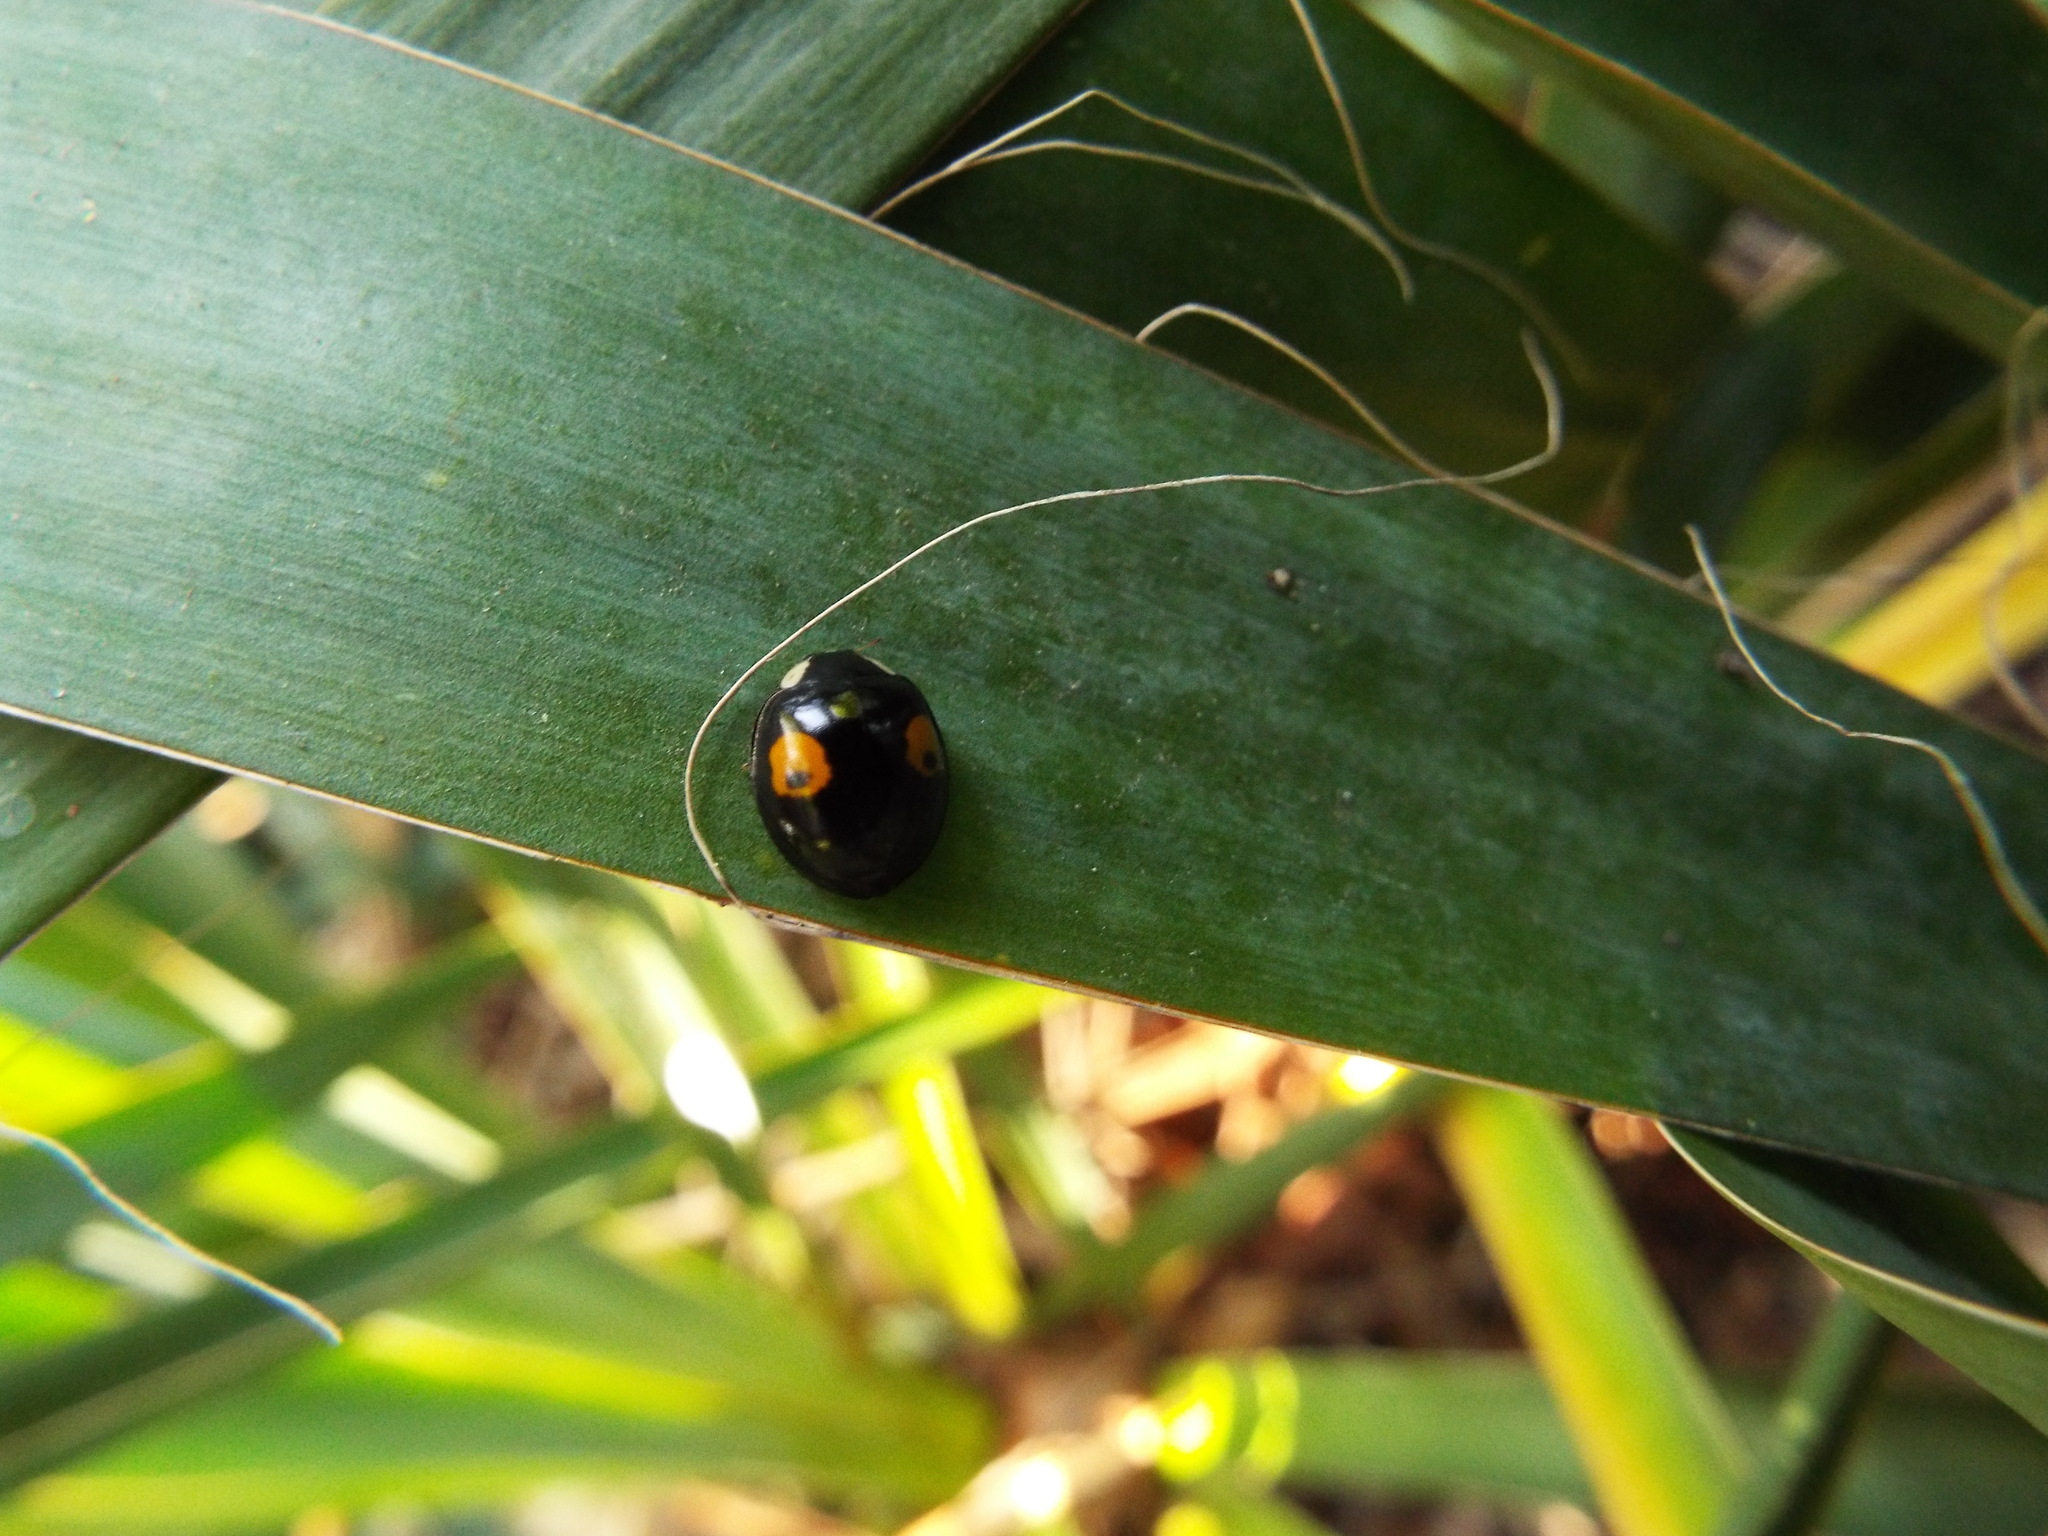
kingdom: Animalia
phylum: Arthropoda
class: Insecta
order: Coleoptera
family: Coccinellidae
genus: Harmonia
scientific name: Harmonia axyridis
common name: Harlequin ladybird
